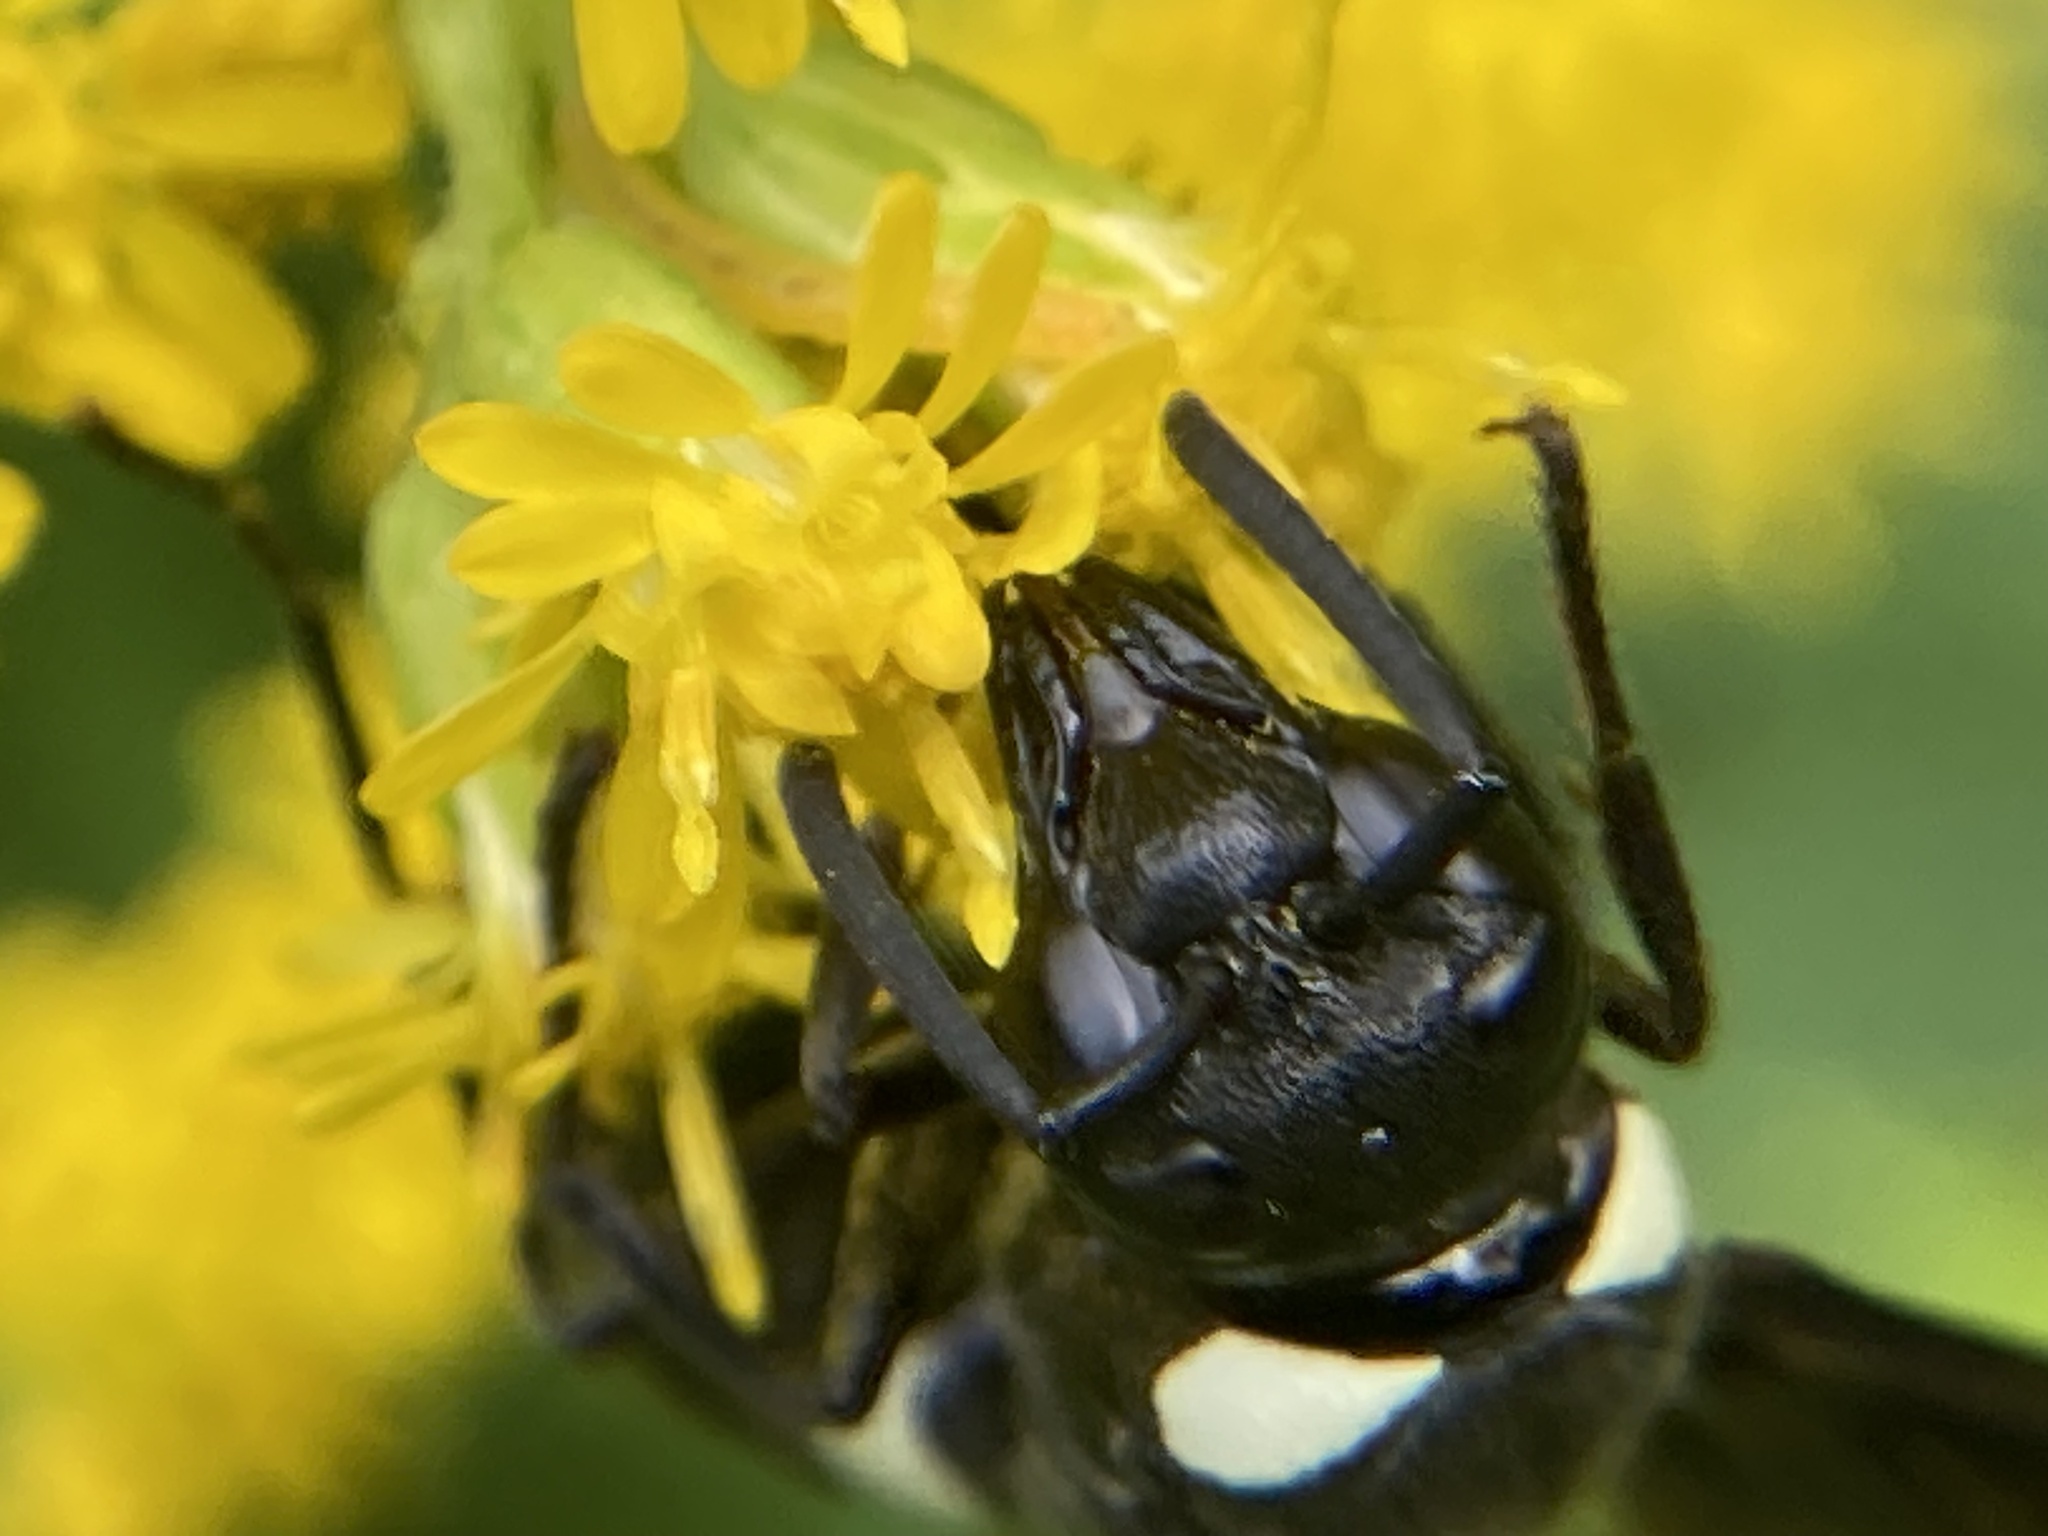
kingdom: Animalia
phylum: Arthropoda
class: Insecta
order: Hymenoptera
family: Eumenidae
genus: Monobia
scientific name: Monobia quadridens
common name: Four-toothed mason wasp
